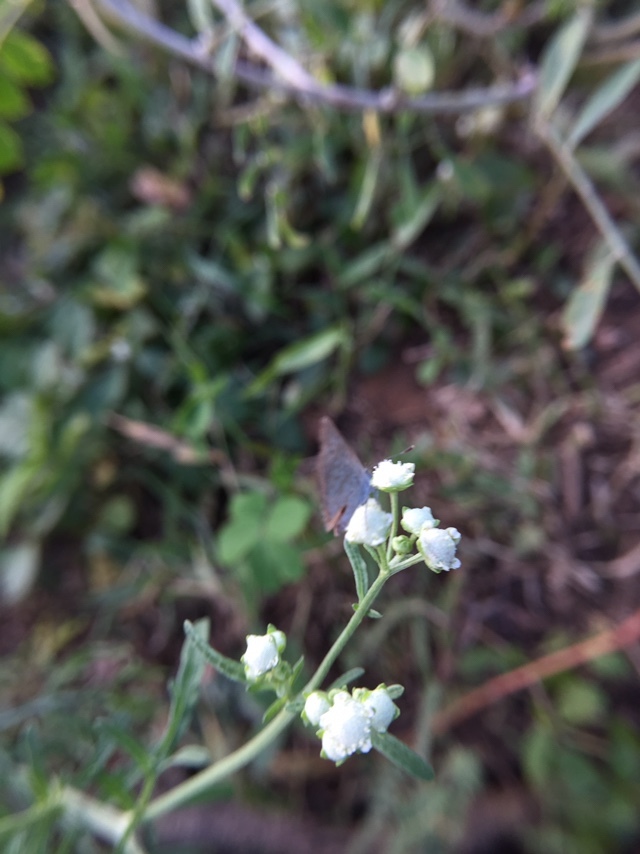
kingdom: Plantae
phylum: Tracheophyta
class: Magnoliopsida
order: Asterales
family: Asteraceae
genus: Parthenium
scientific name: Parthenium hysterophorus
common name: Santa maria feverfew
